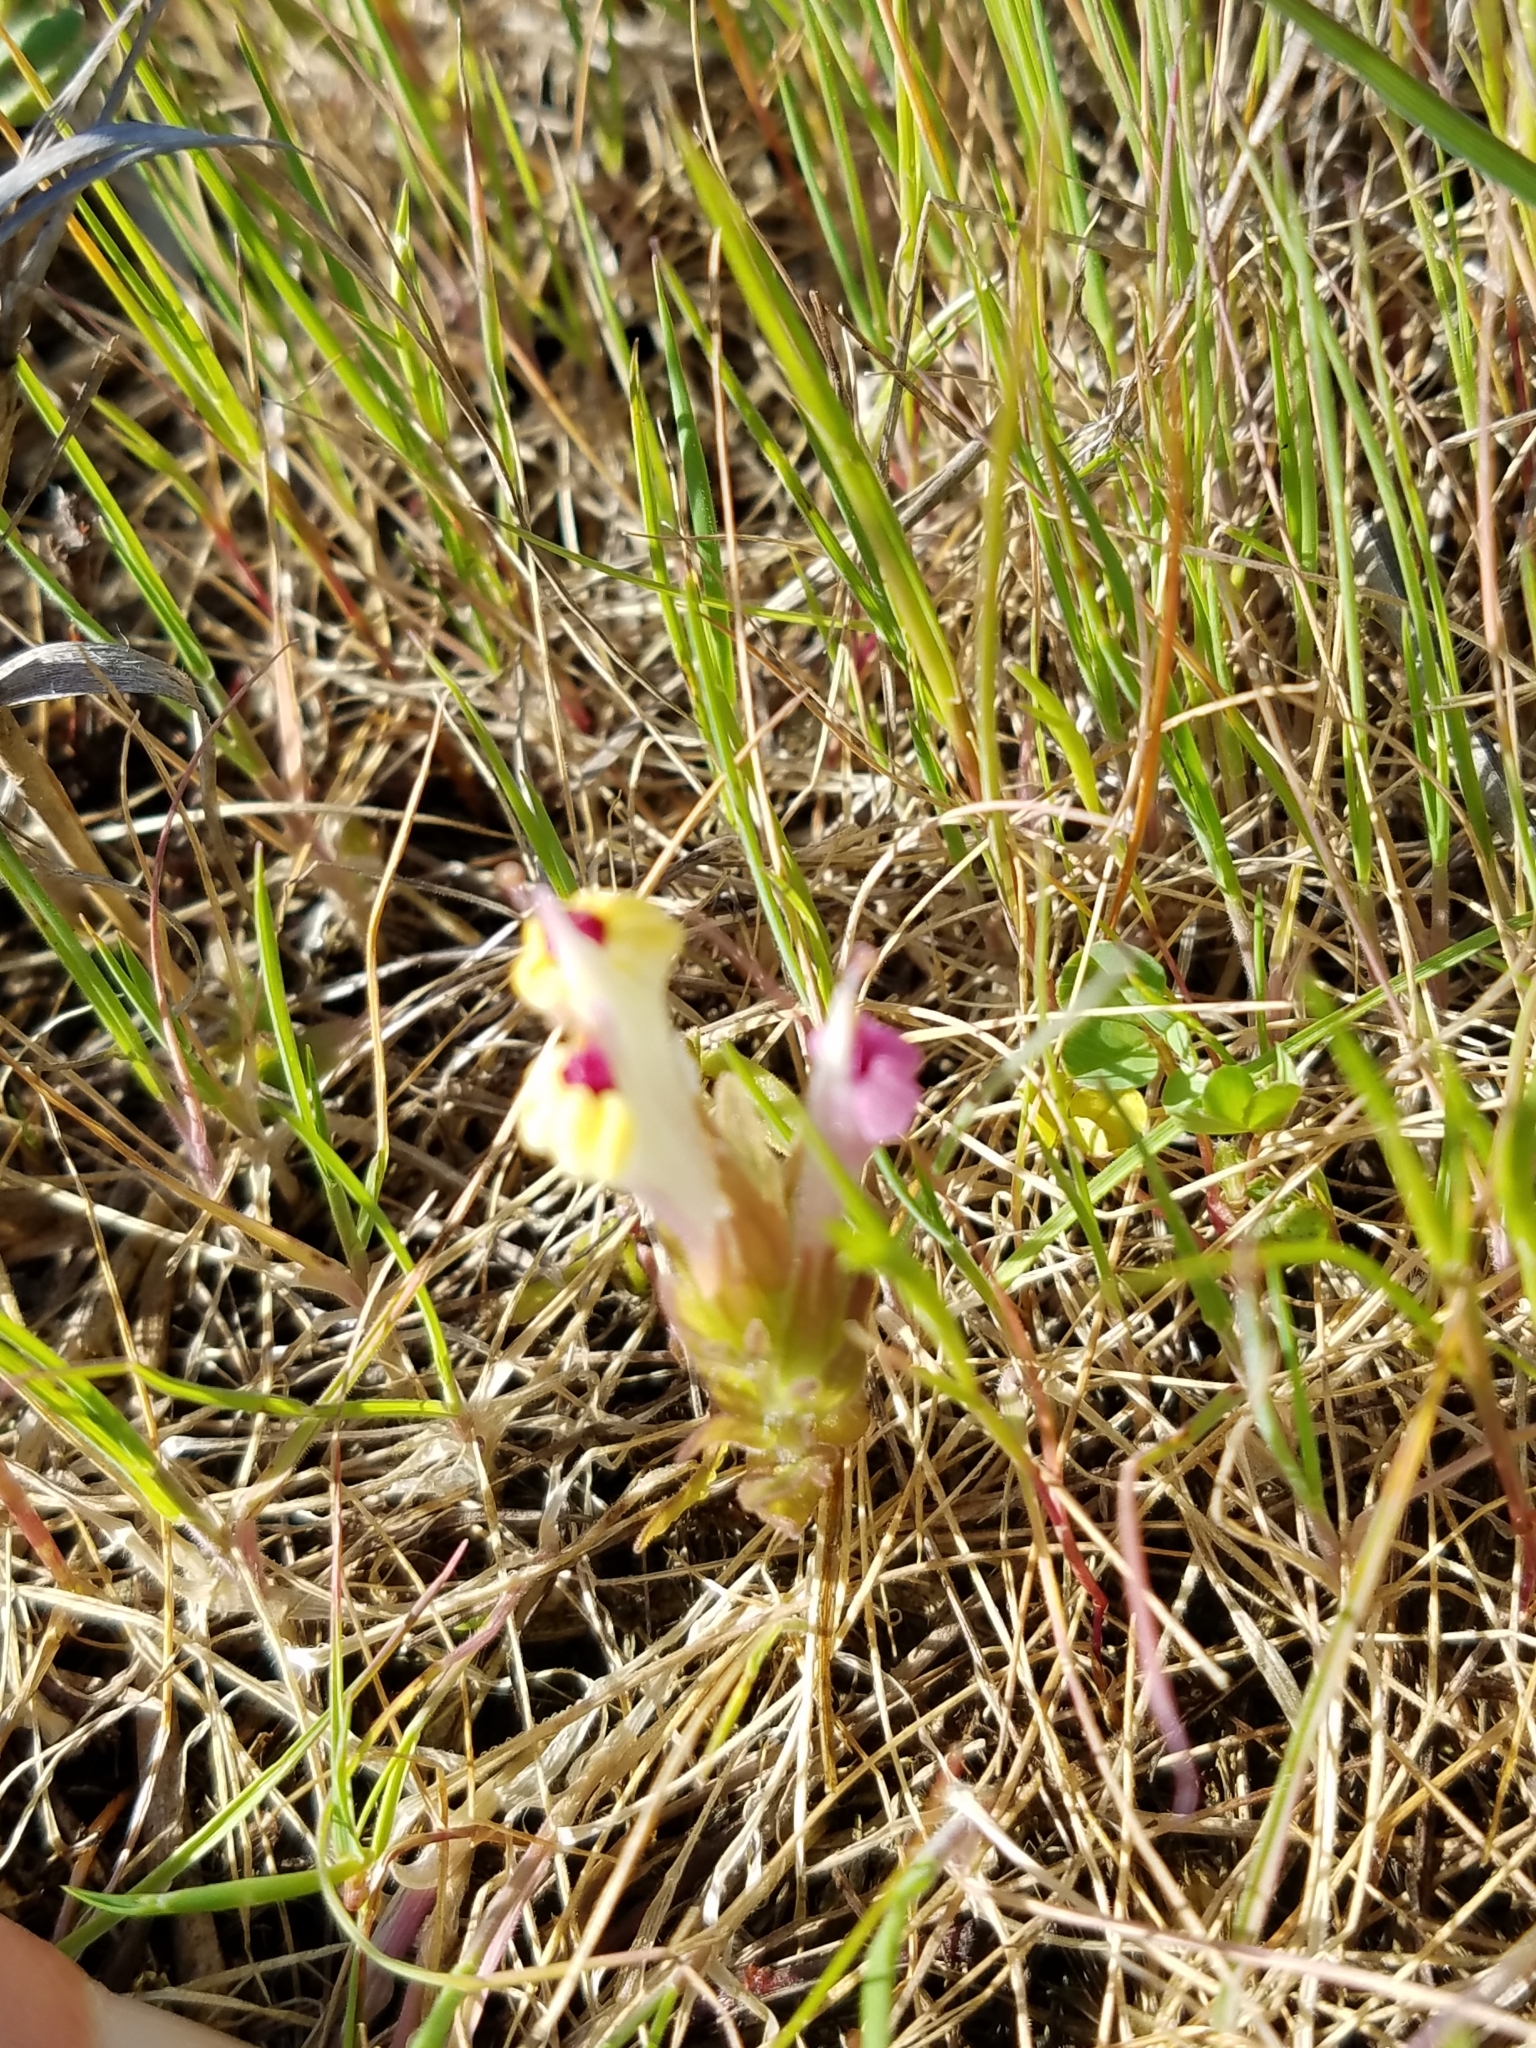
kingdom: Plantae
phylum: Tracheophyta
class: Magnoliopsida
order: Lamiales
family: Orobanchaceae
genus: Castilleja
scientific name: Castilleja ambigua
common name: Johnny-nip
